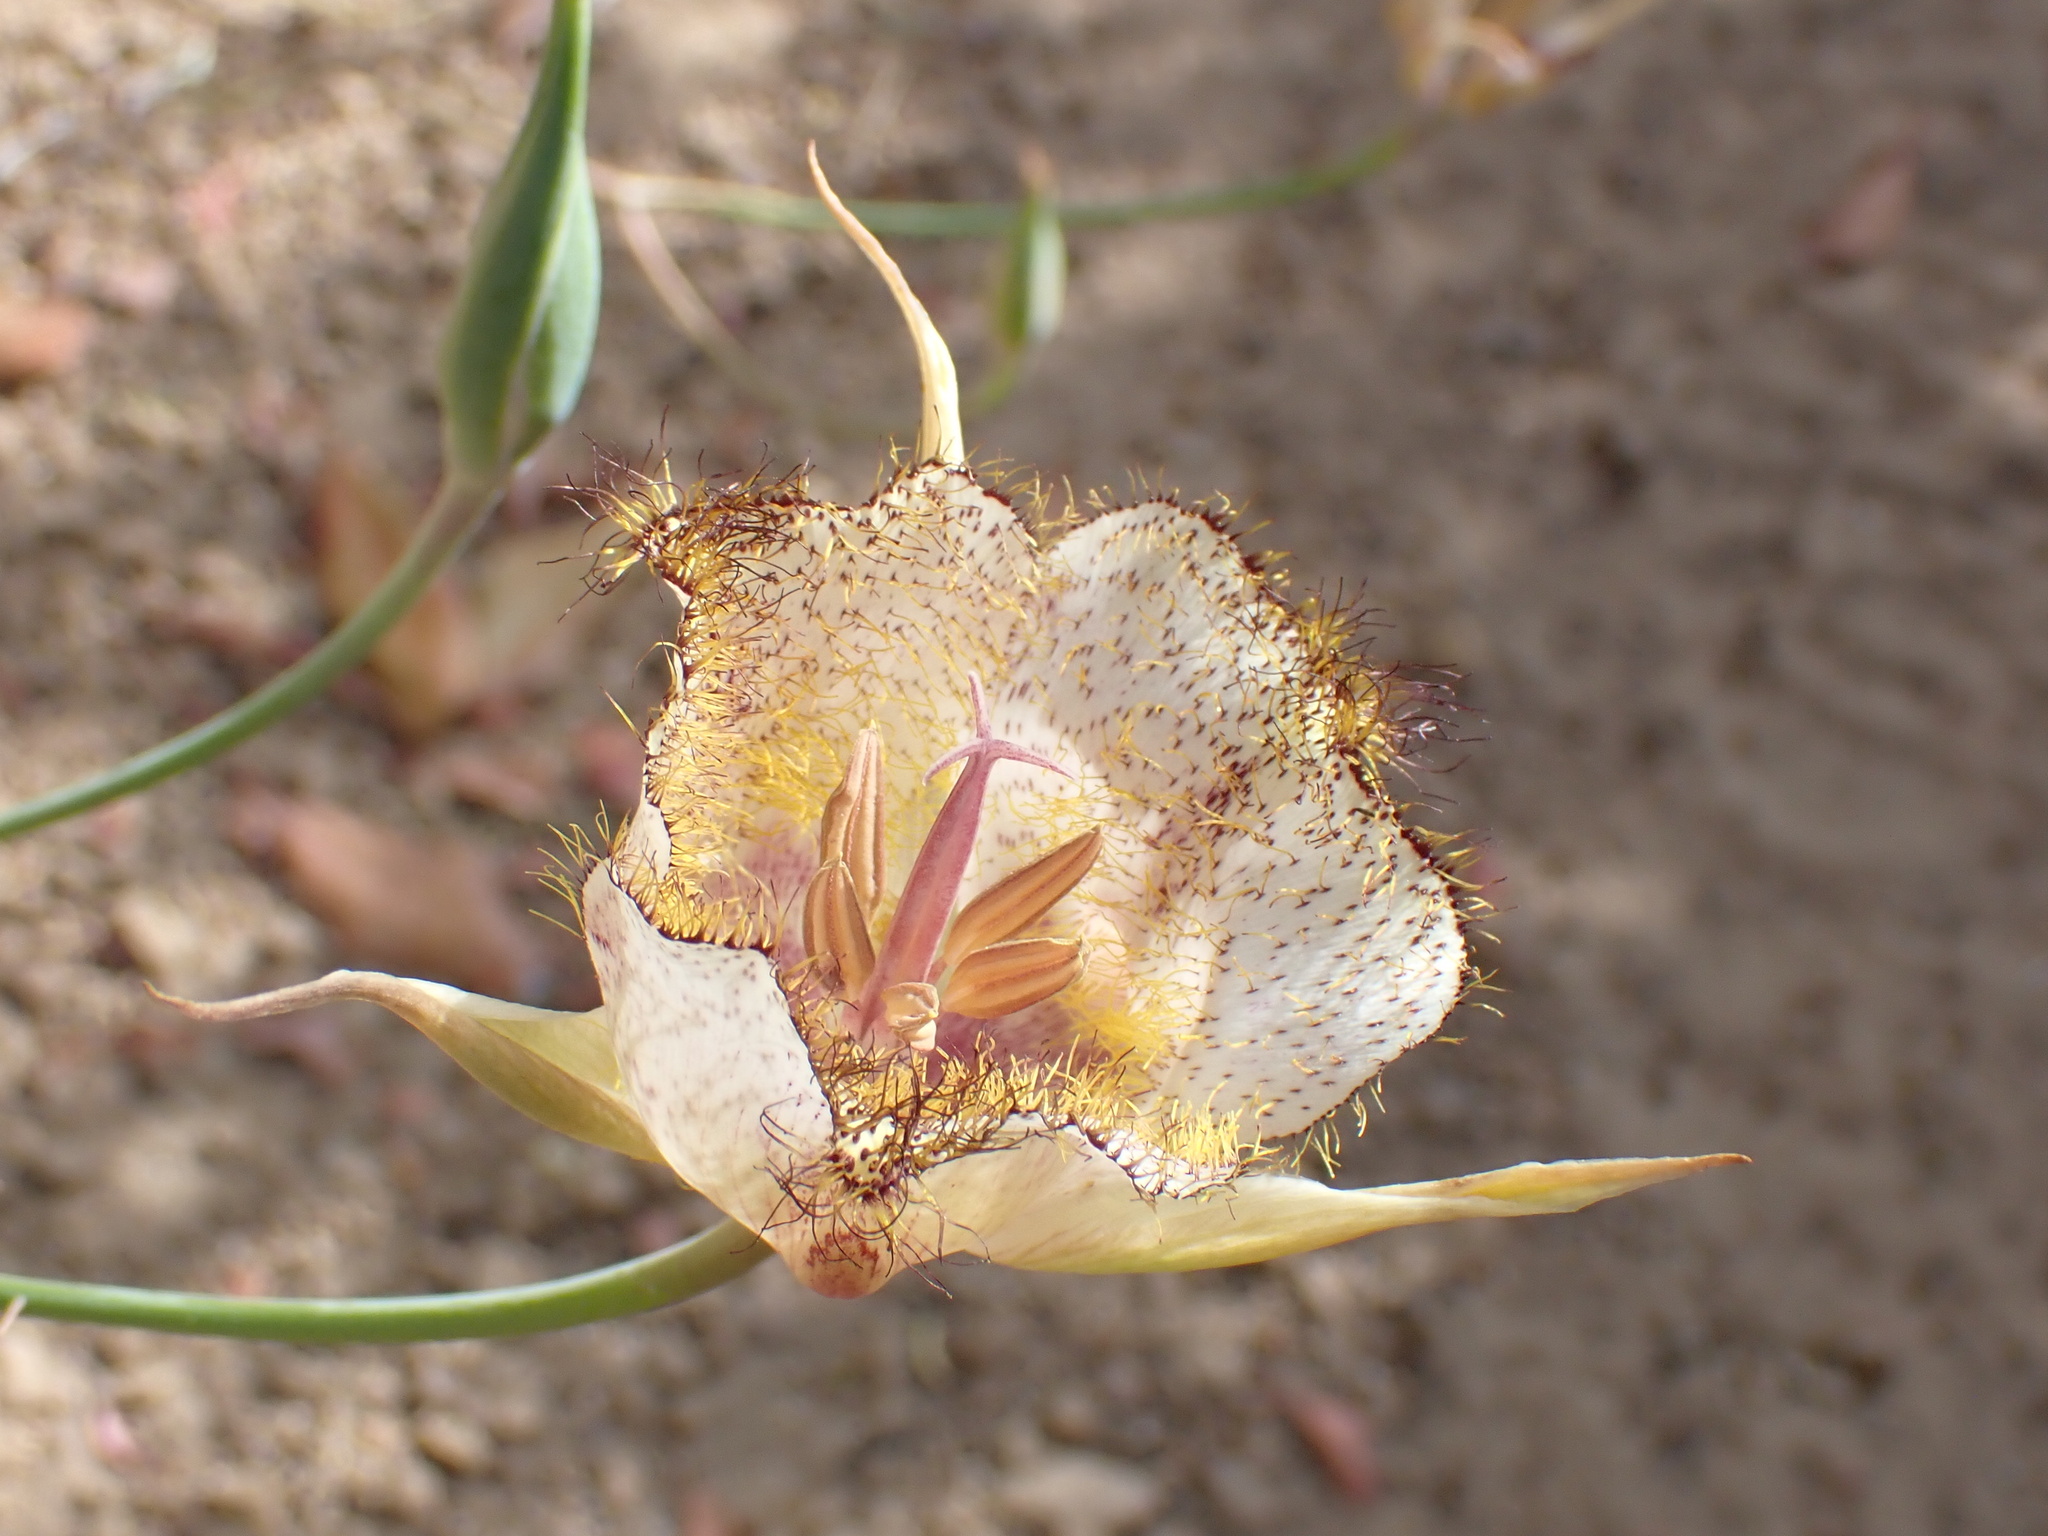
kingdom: Plantae
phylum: Tracheophyta
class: Liliopsida
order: Liliales
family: Liliaceae
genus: Calochortus
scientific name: Calochortus fimbriatus
